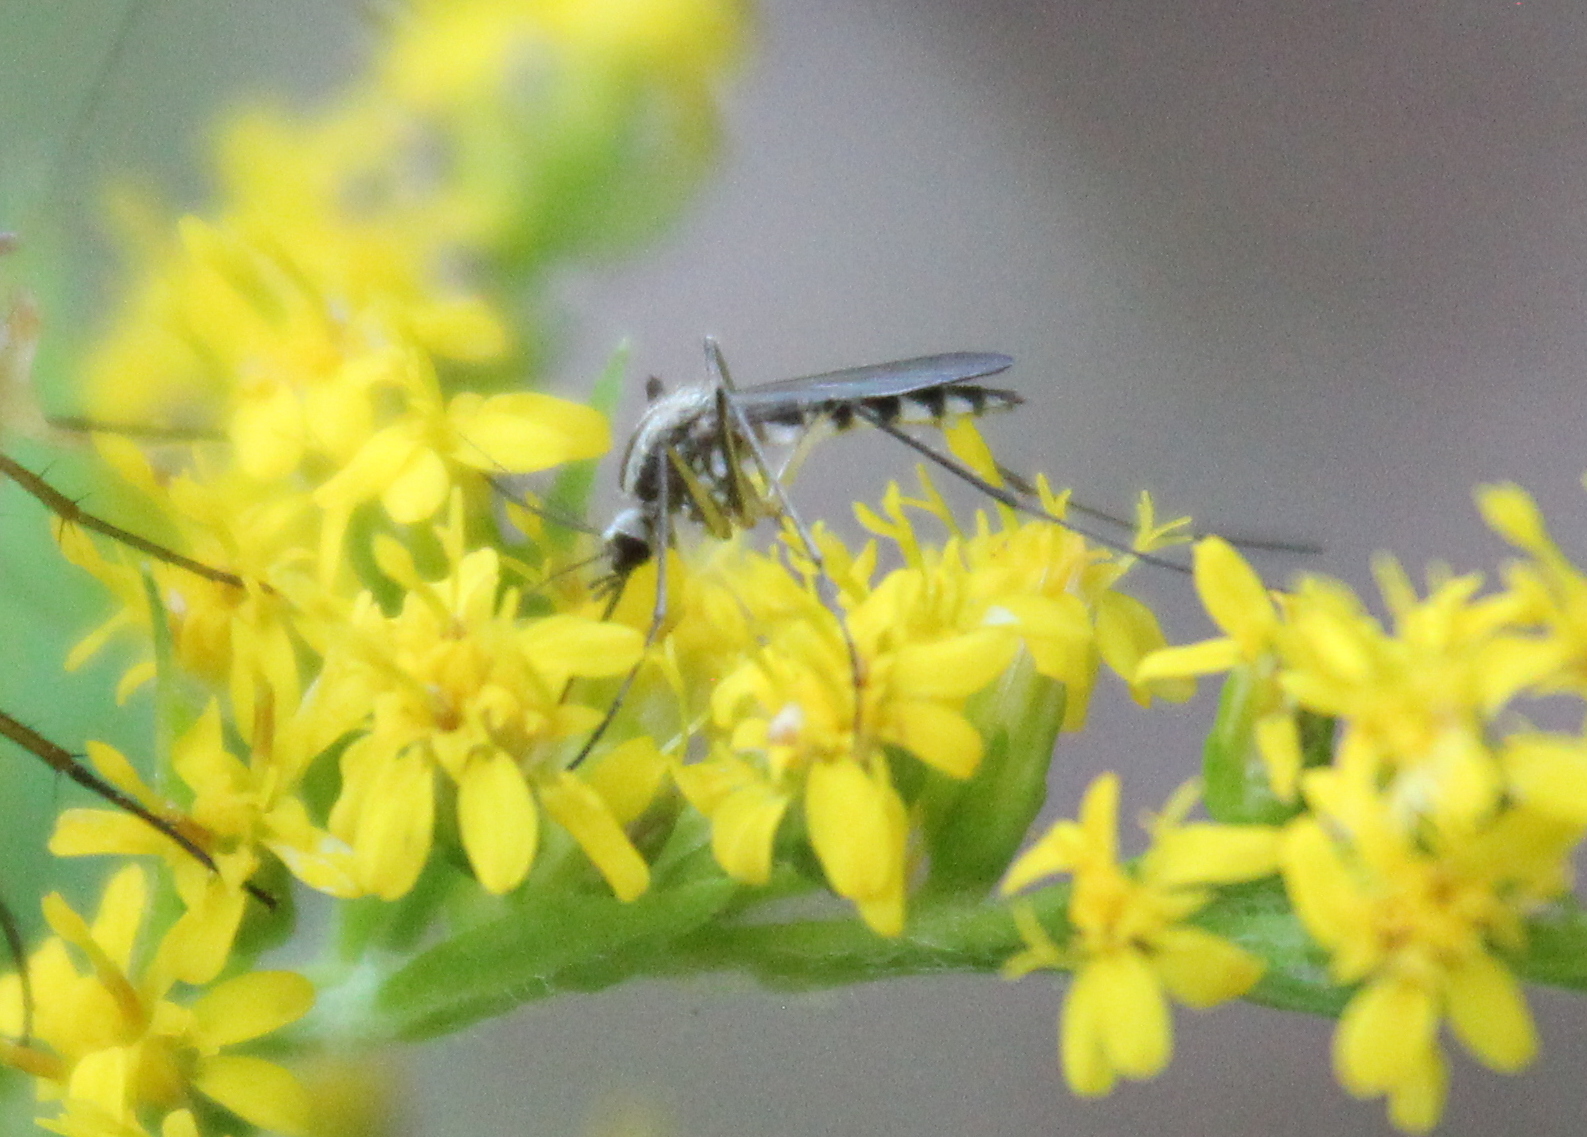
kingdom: Animalia
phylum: Arthropoda
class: Insecta
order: Diptera
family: Culicidae
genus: Aedes
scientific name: Aedes trivittatus
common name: Plains floodwater mosquito
